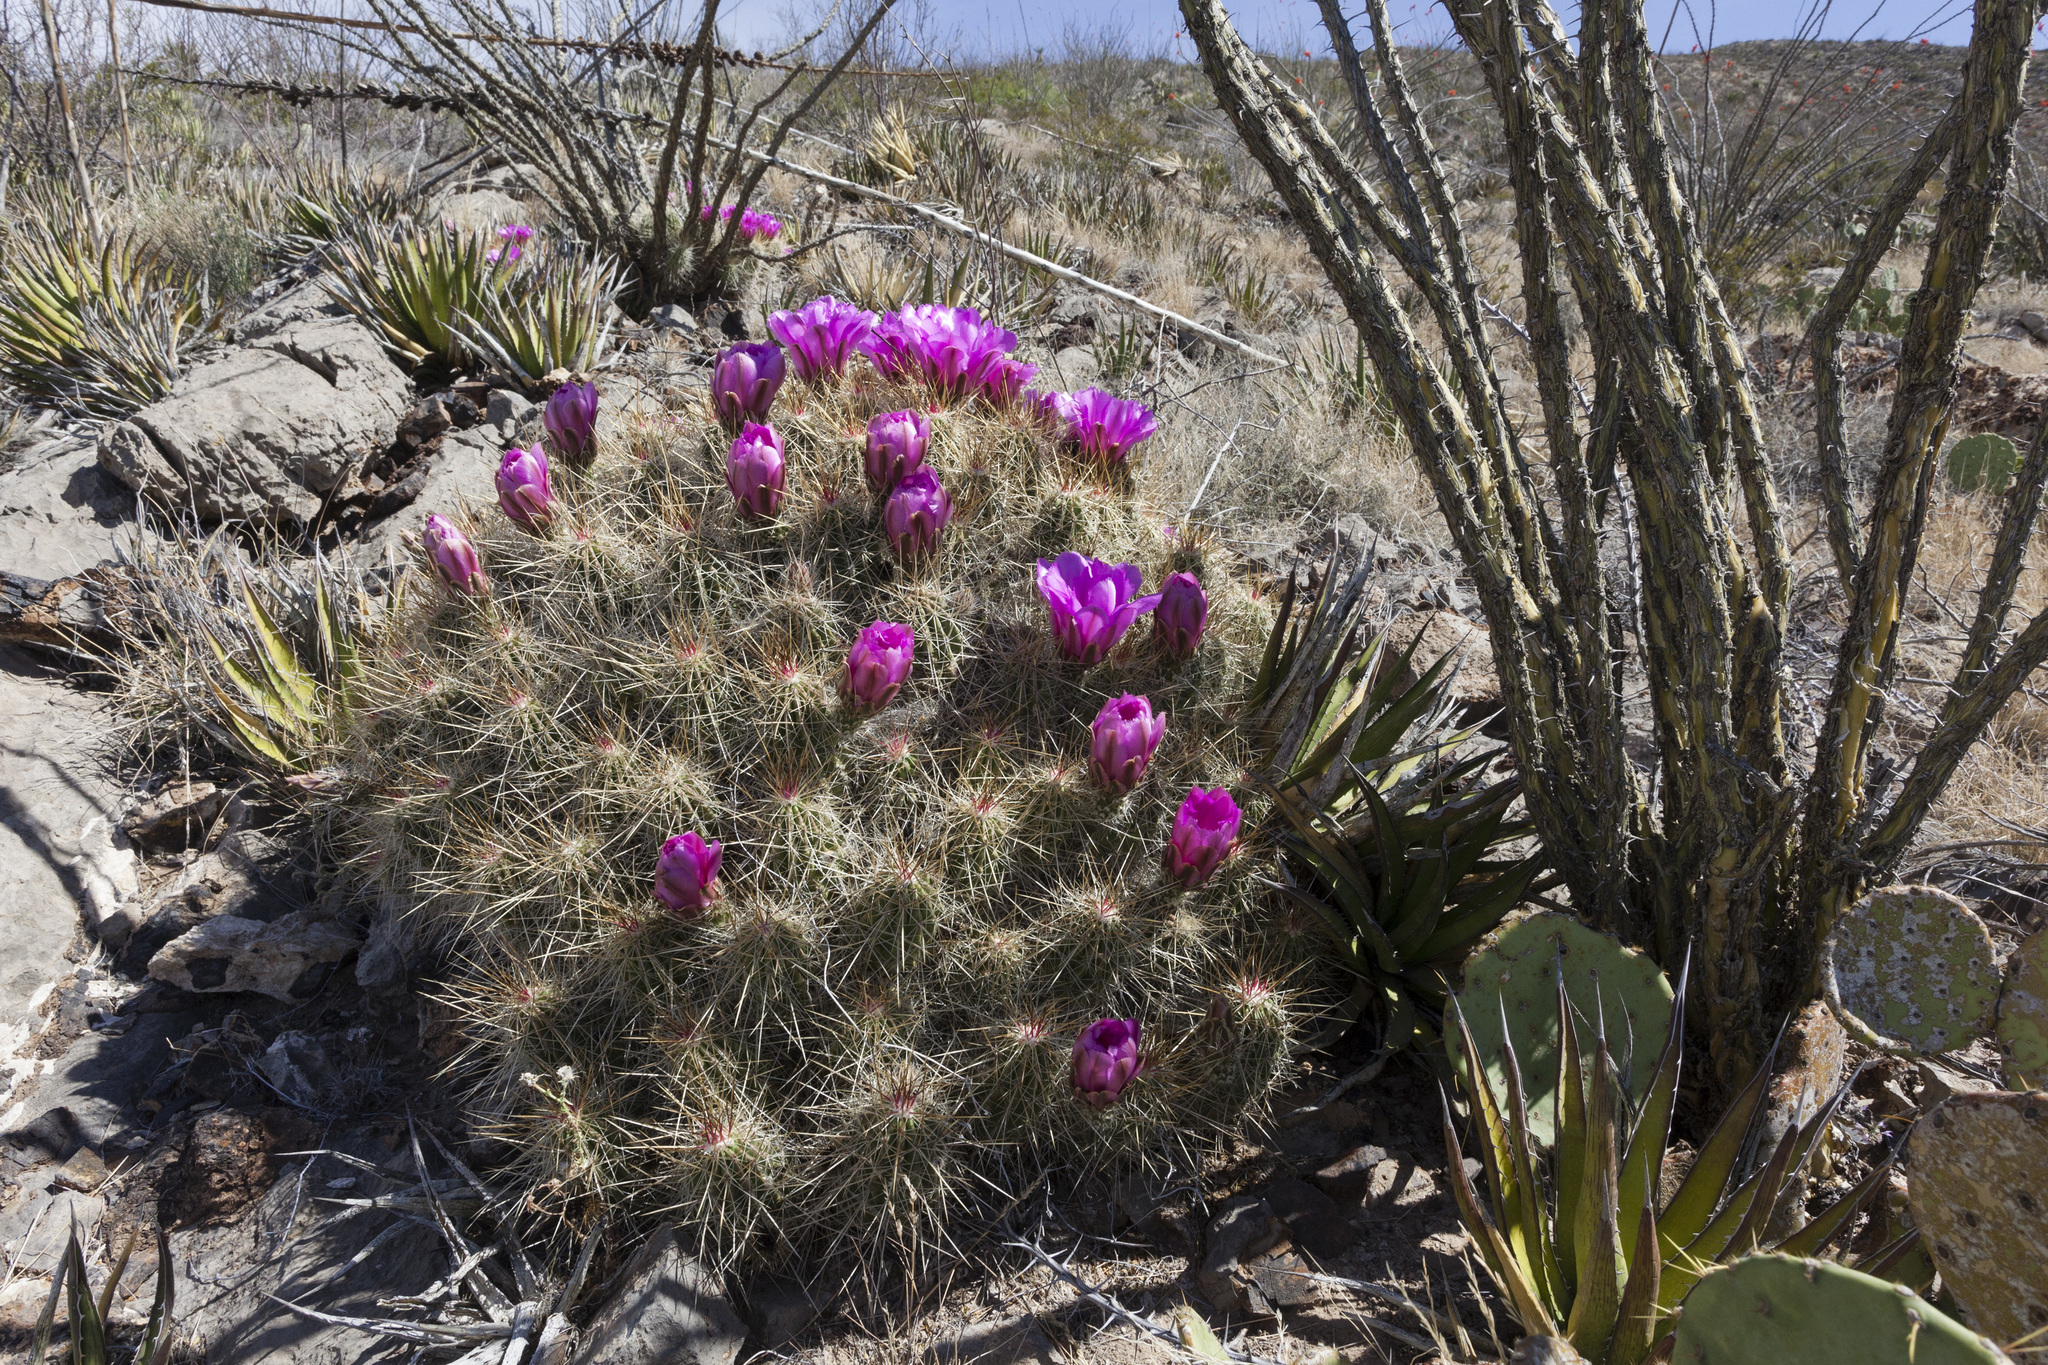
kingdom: Plantae
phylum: Tracheophyta
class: Magnoliopsida
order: Caryophyllales
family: Cactaceae
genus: Echinocereus
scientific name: Echinocereus stramineus
